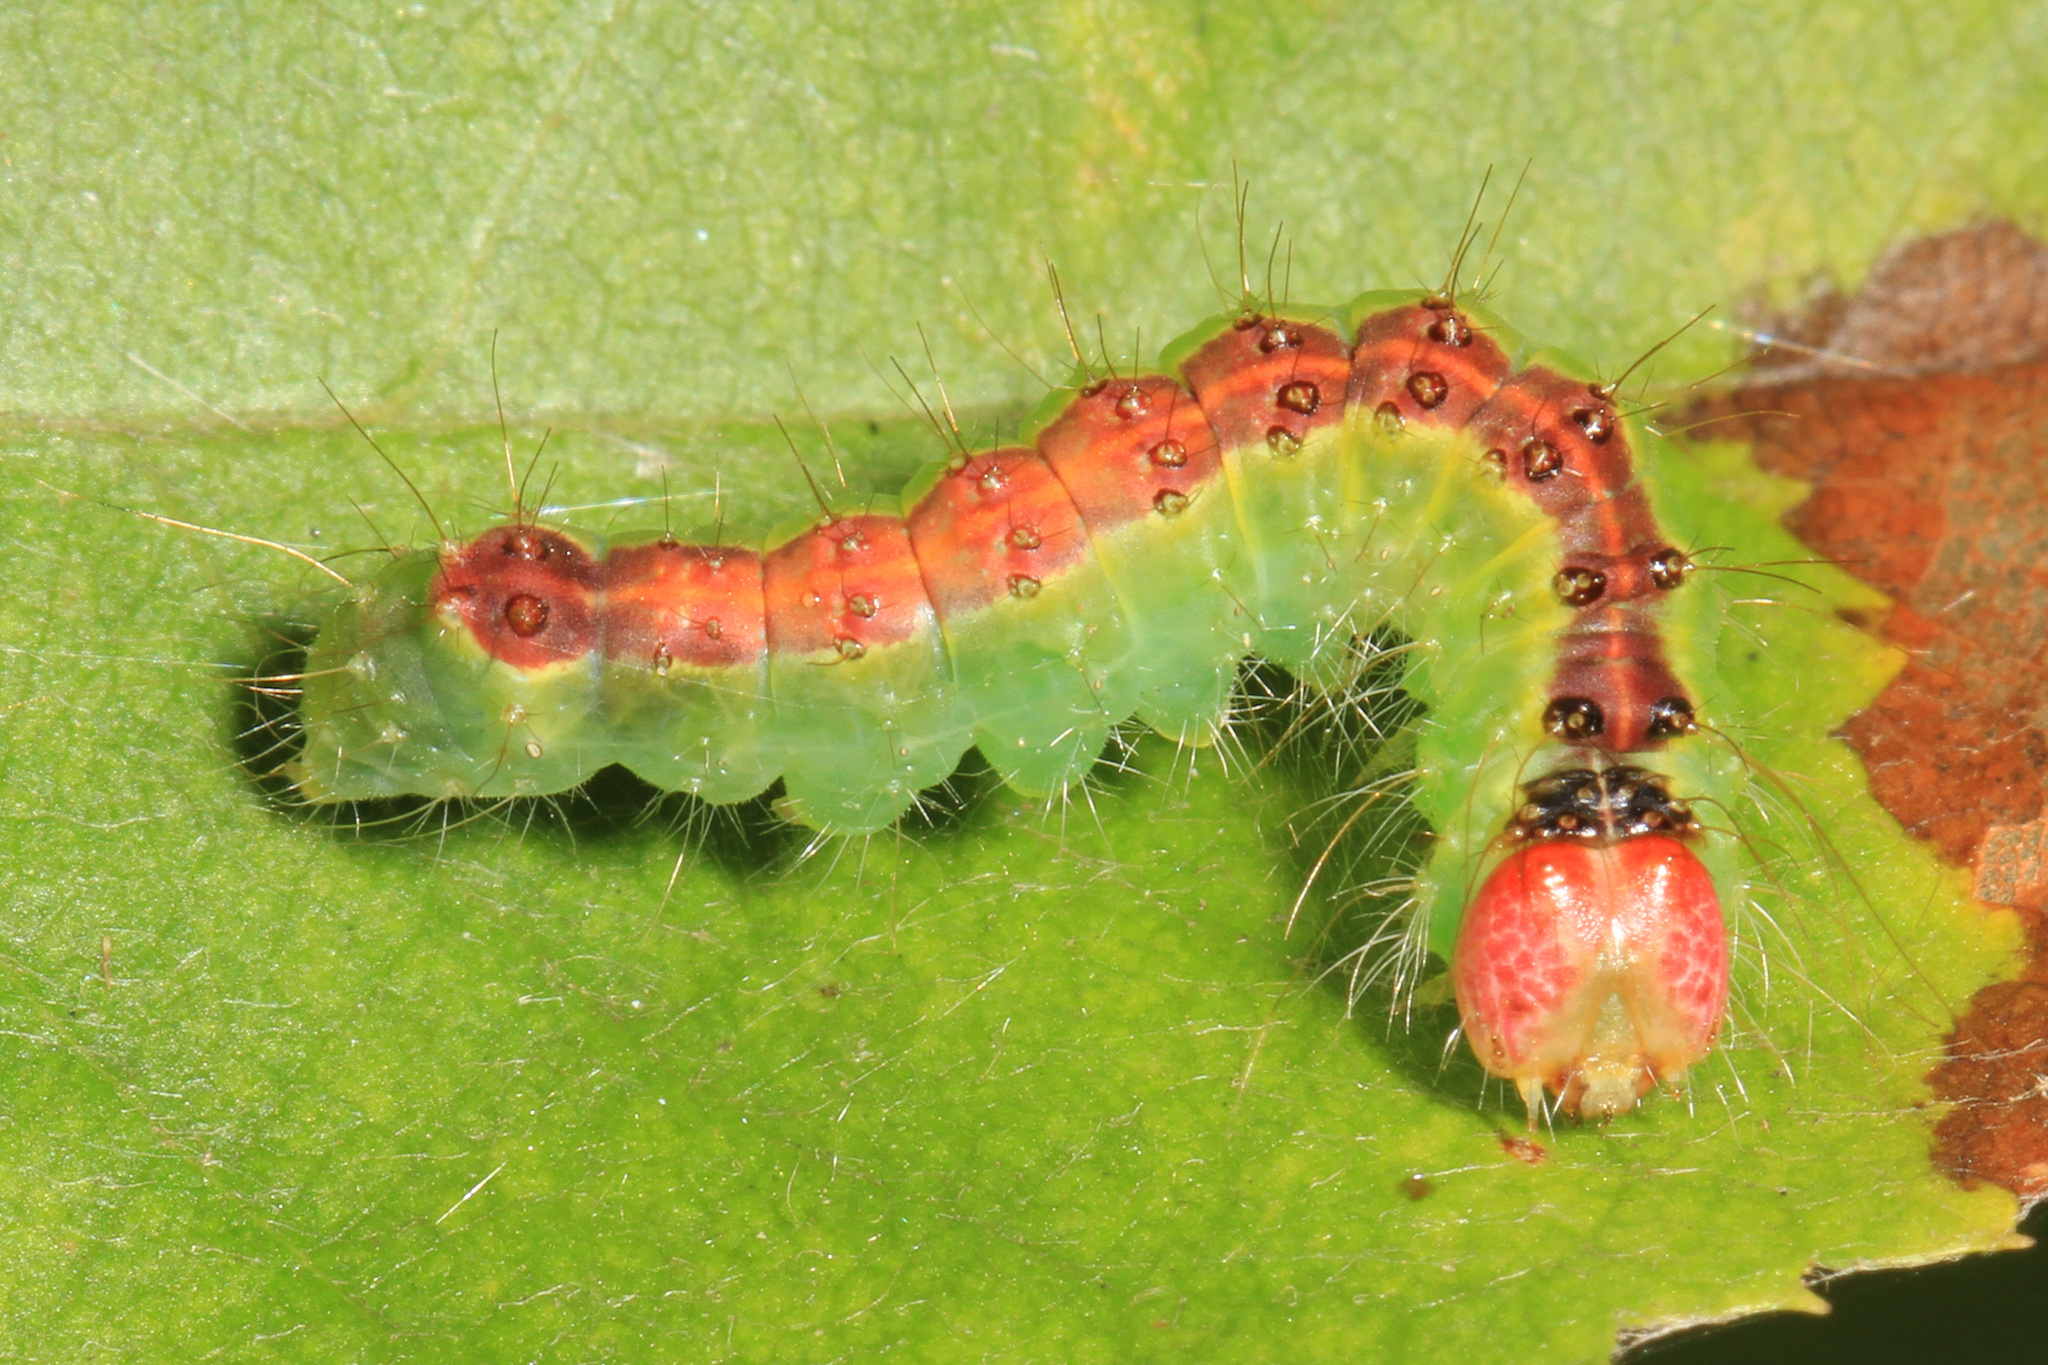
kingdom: Animalia
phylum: Arthropoda
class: Insecta
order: Lepidoptera
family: Noctuidae
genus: Acronicta
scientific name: Acronicta radcliffei
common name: Radcliffe's dagger
